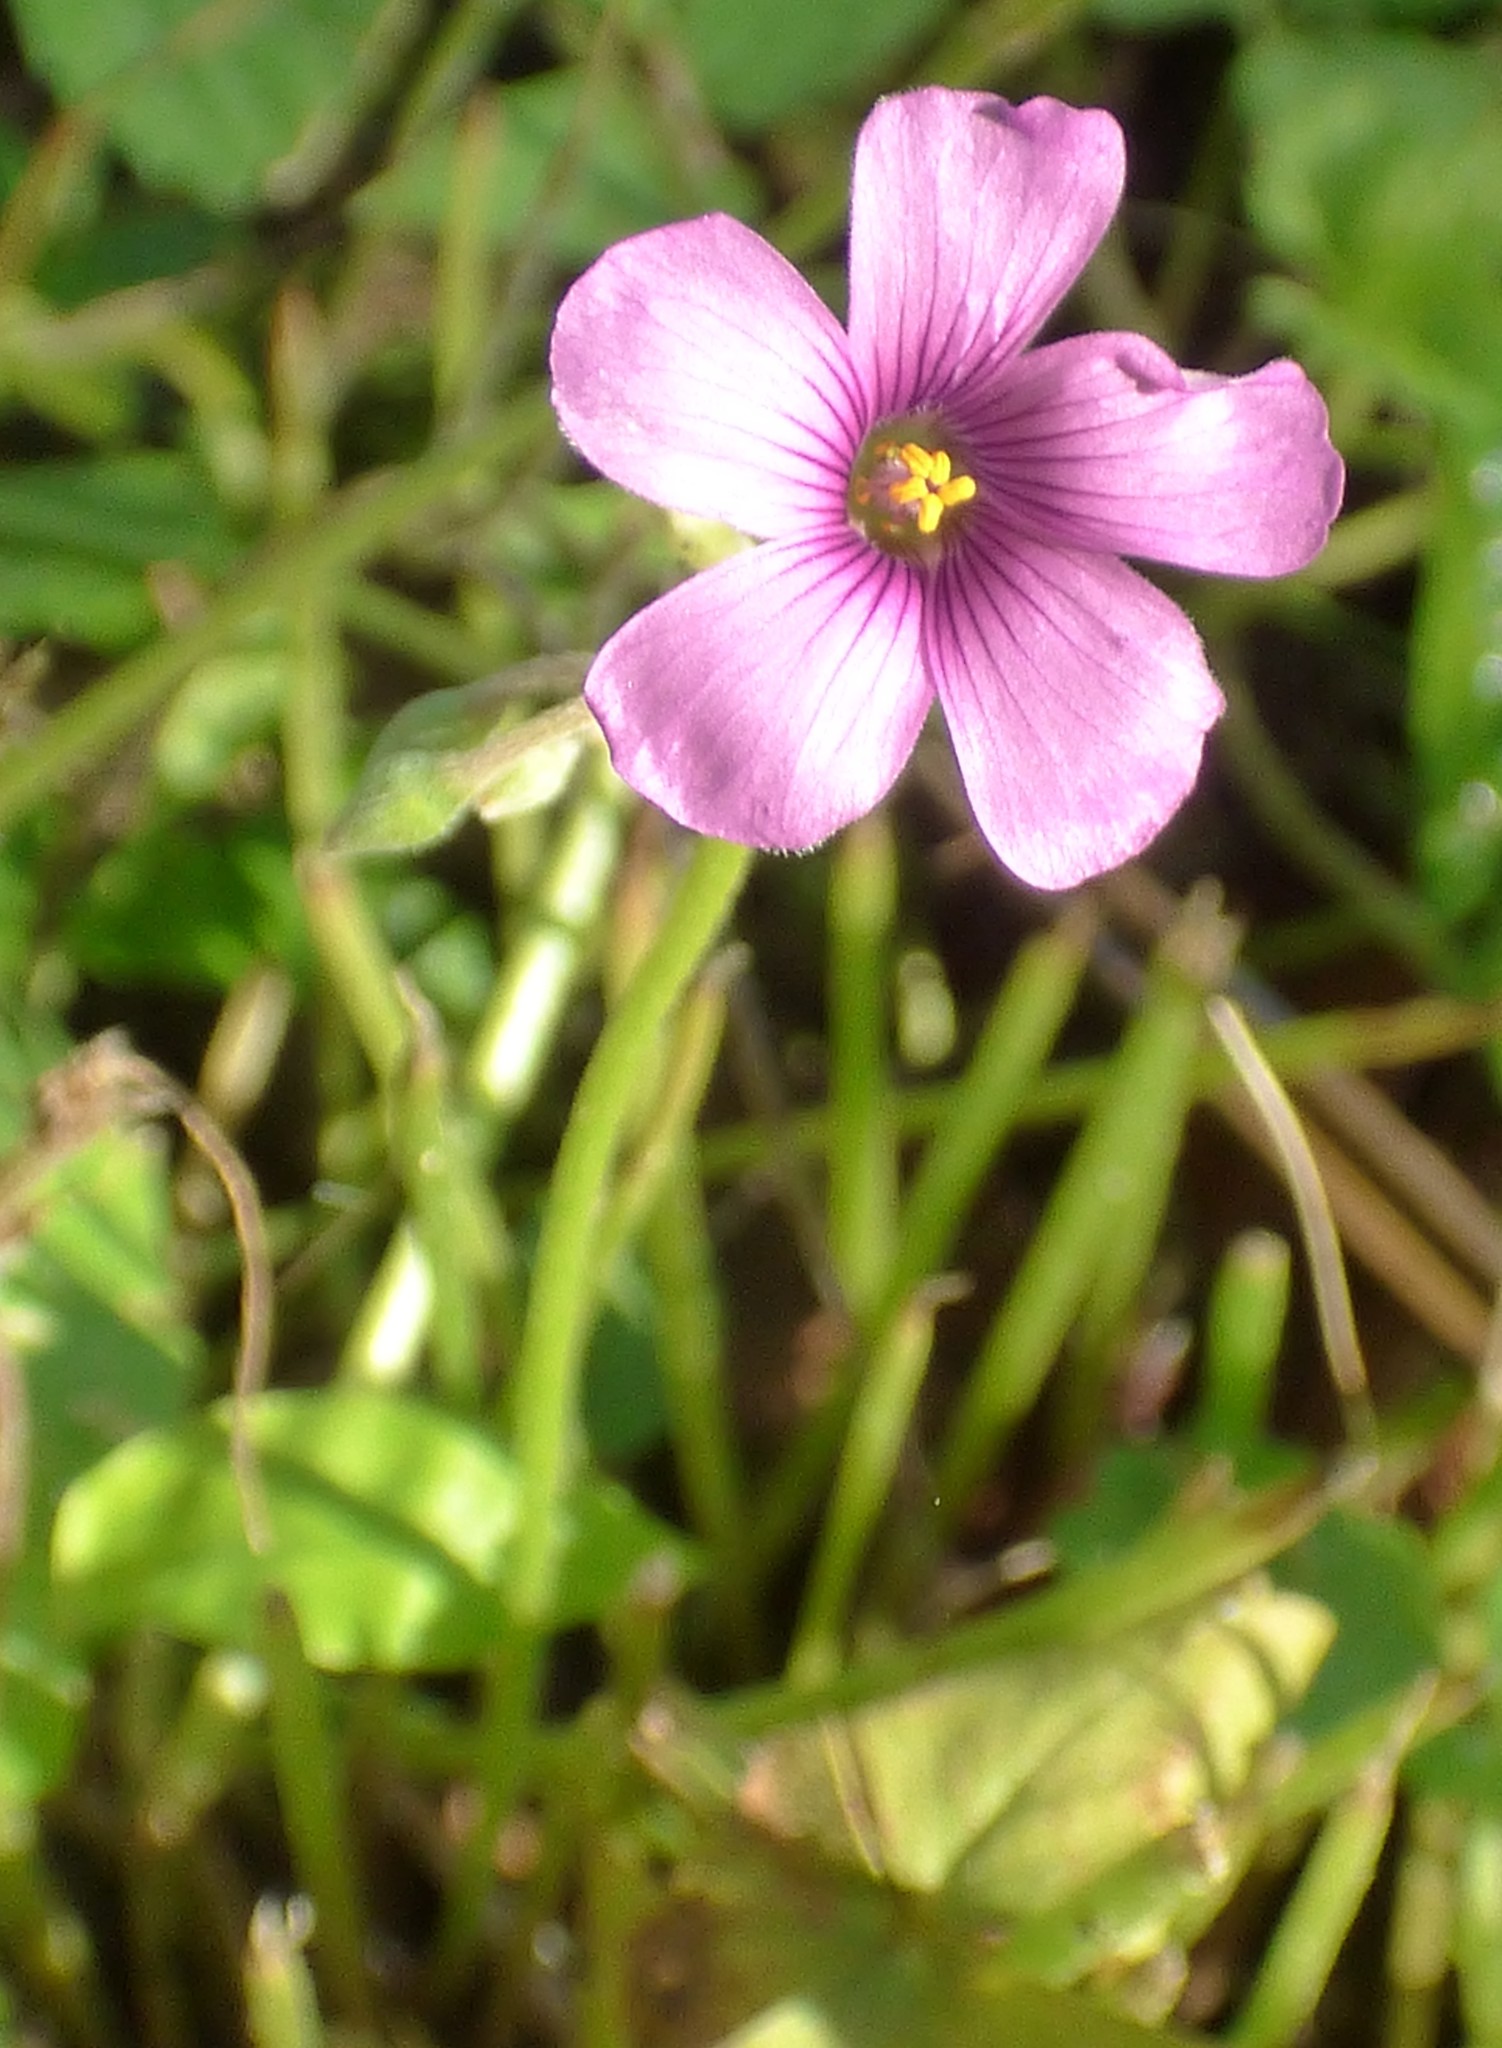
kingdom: Plantae
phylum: Tracheophyta
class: Magnoliopsida
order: Oxalidales
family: Oxalidaceae
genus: Oxalis
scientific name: Oxalis articulata
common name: Pink-sorrel
